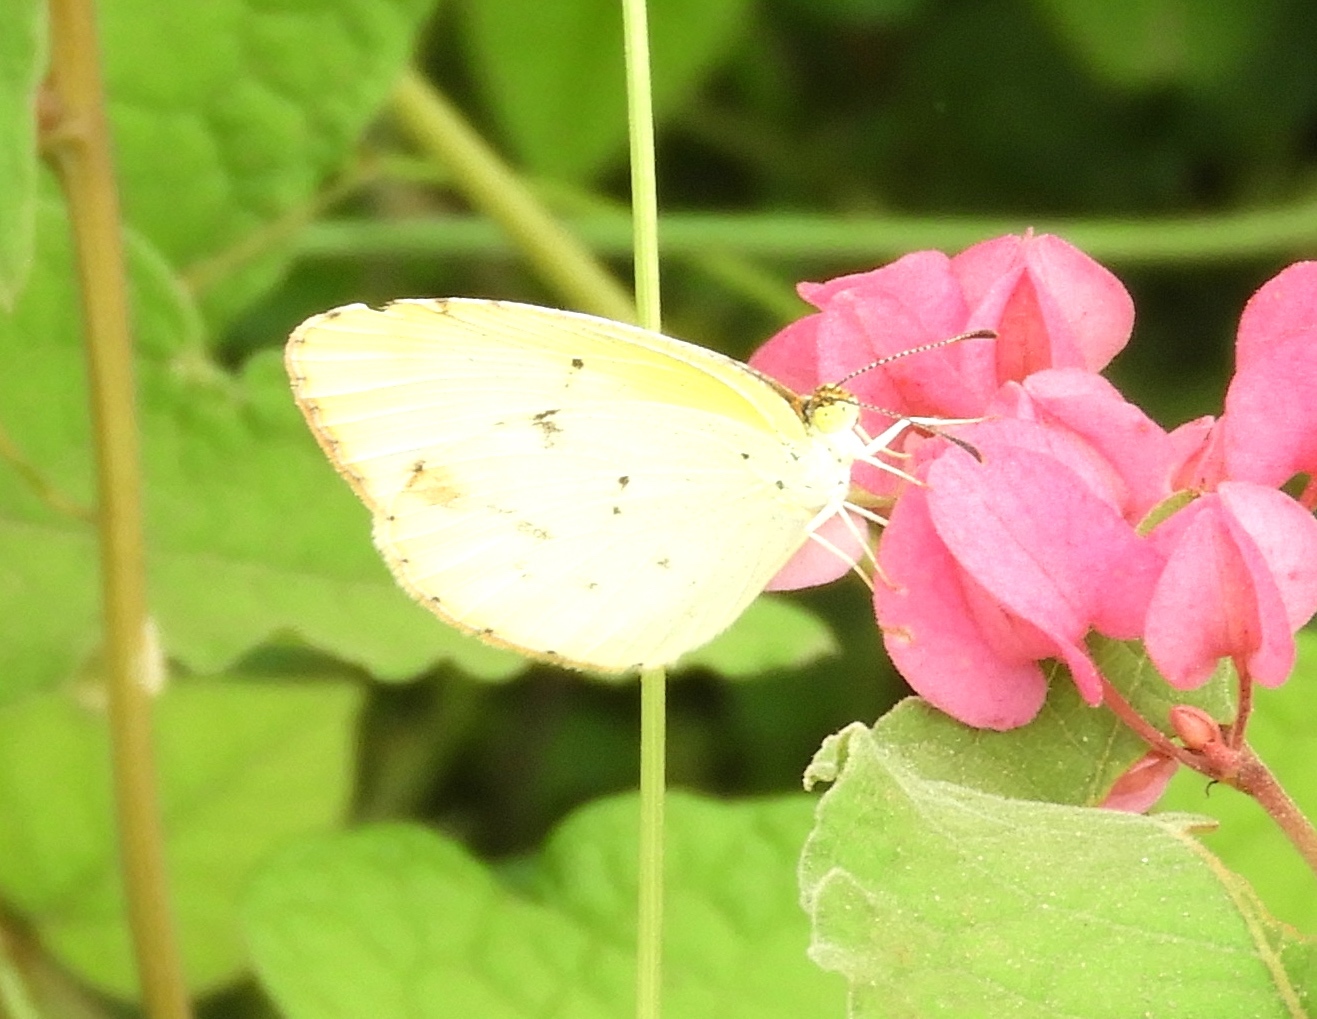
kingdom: Animalia
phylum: Arthropoda
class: Insecta
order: Lepidoptera
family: Pieridae
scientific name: Pieridae
